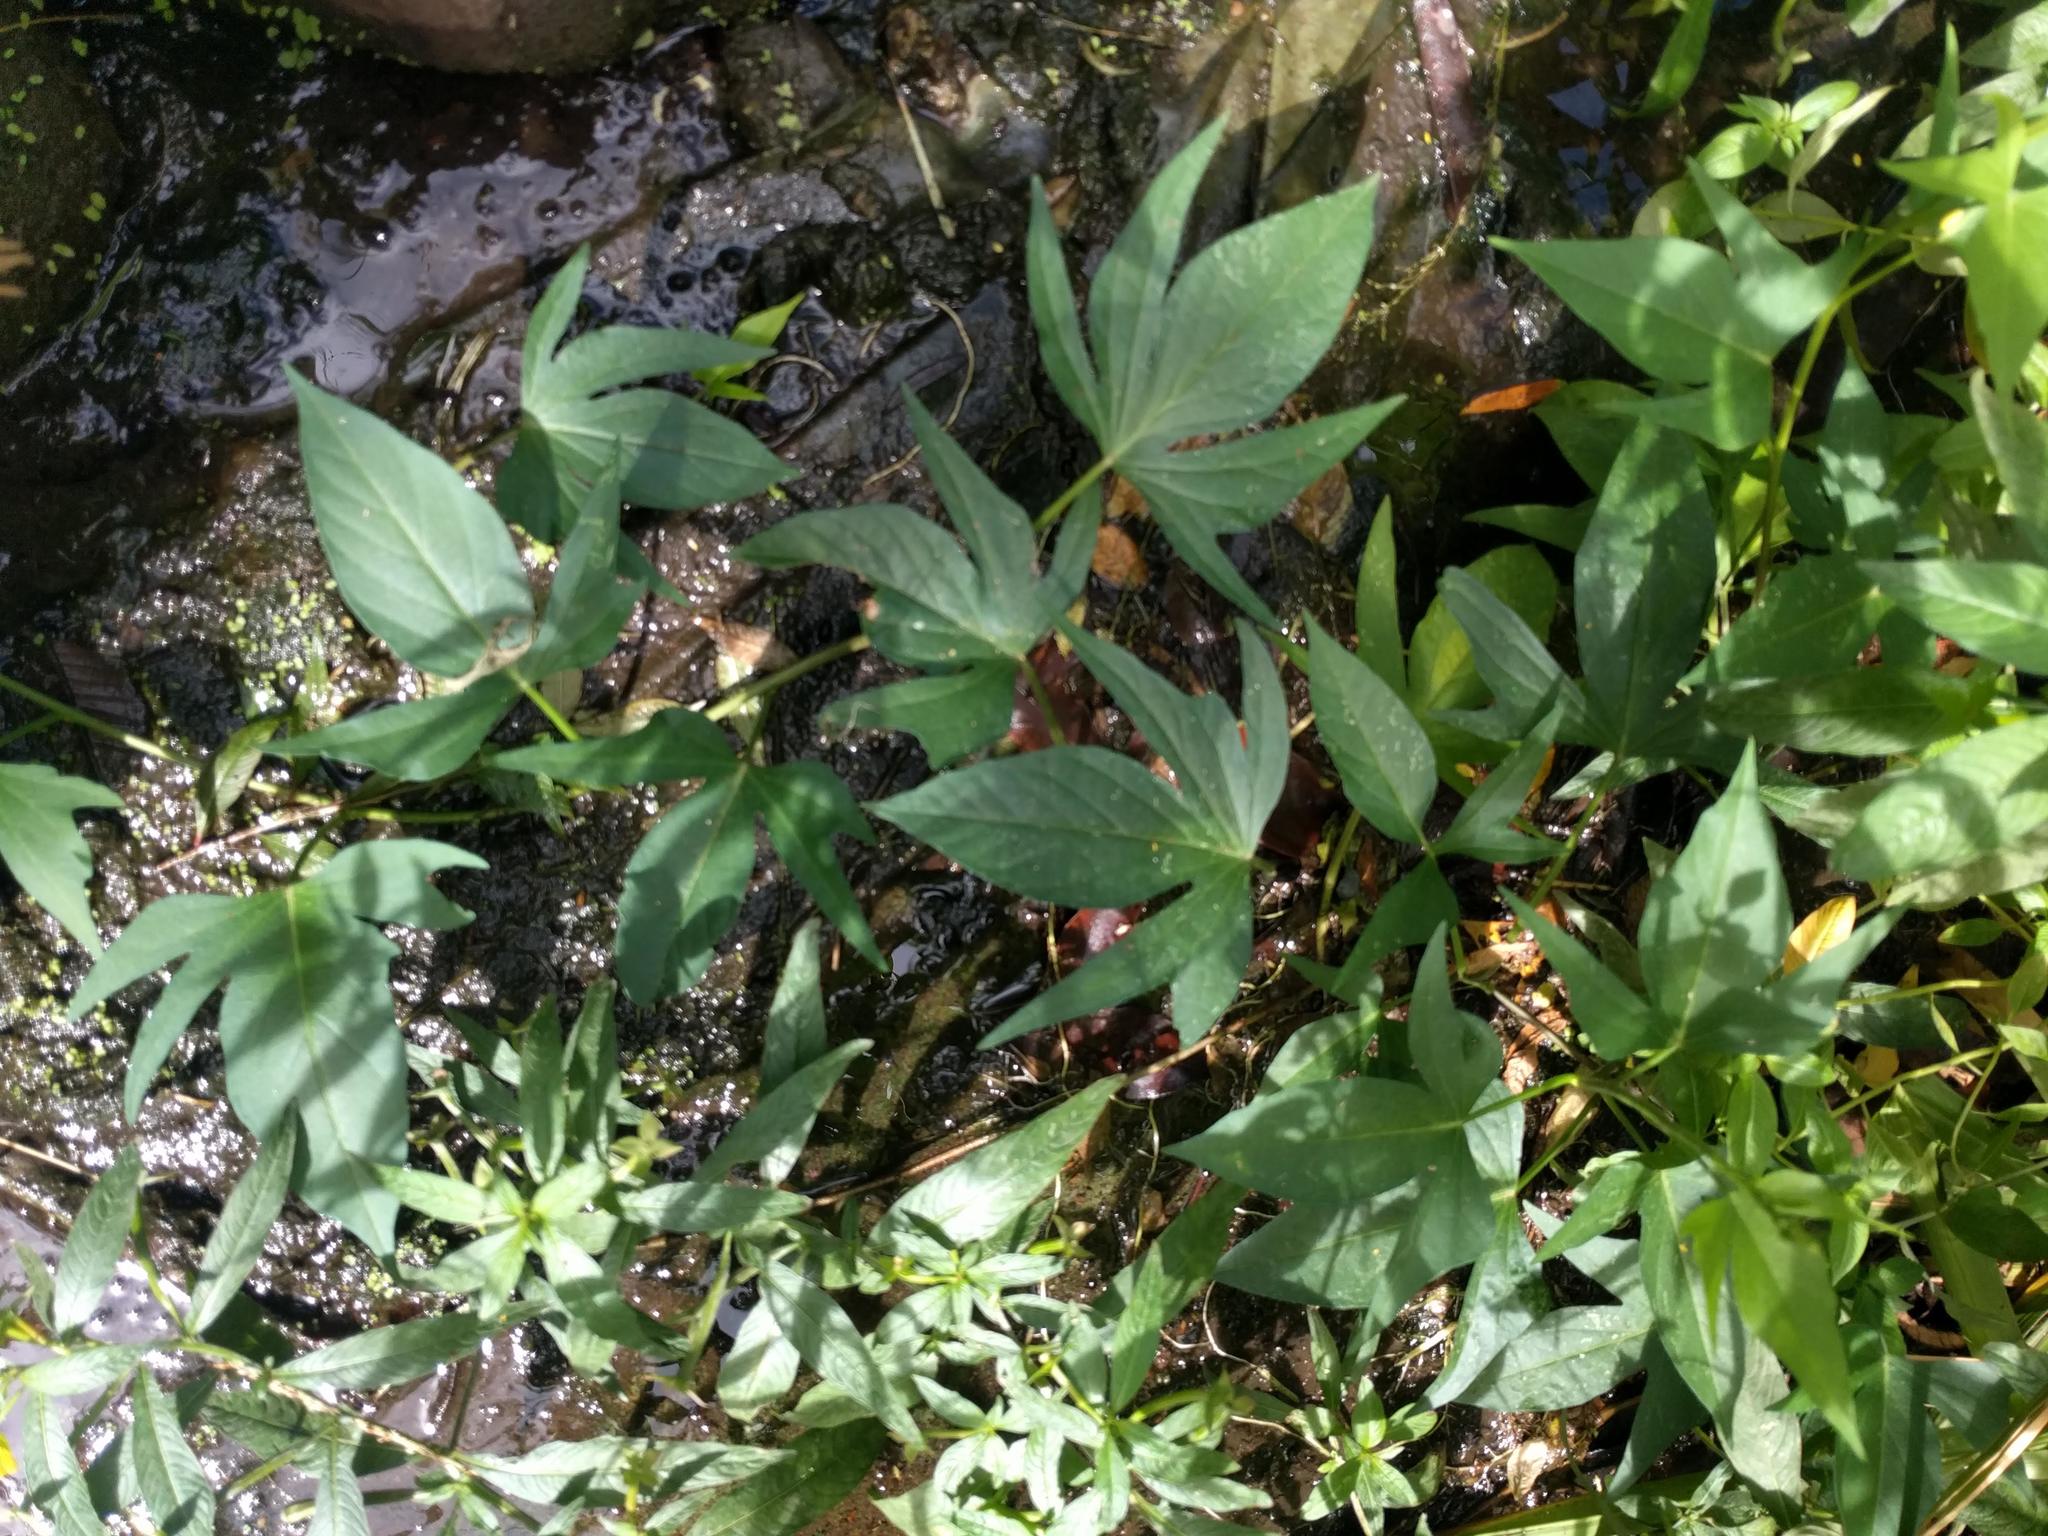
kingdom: Plantae
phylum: Tracheophyta
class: Magnoliopsida
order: Solanales
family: Convolvulaceae
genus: Ipomoea
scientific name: Ipomoea batatas
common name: Sweet-potato
